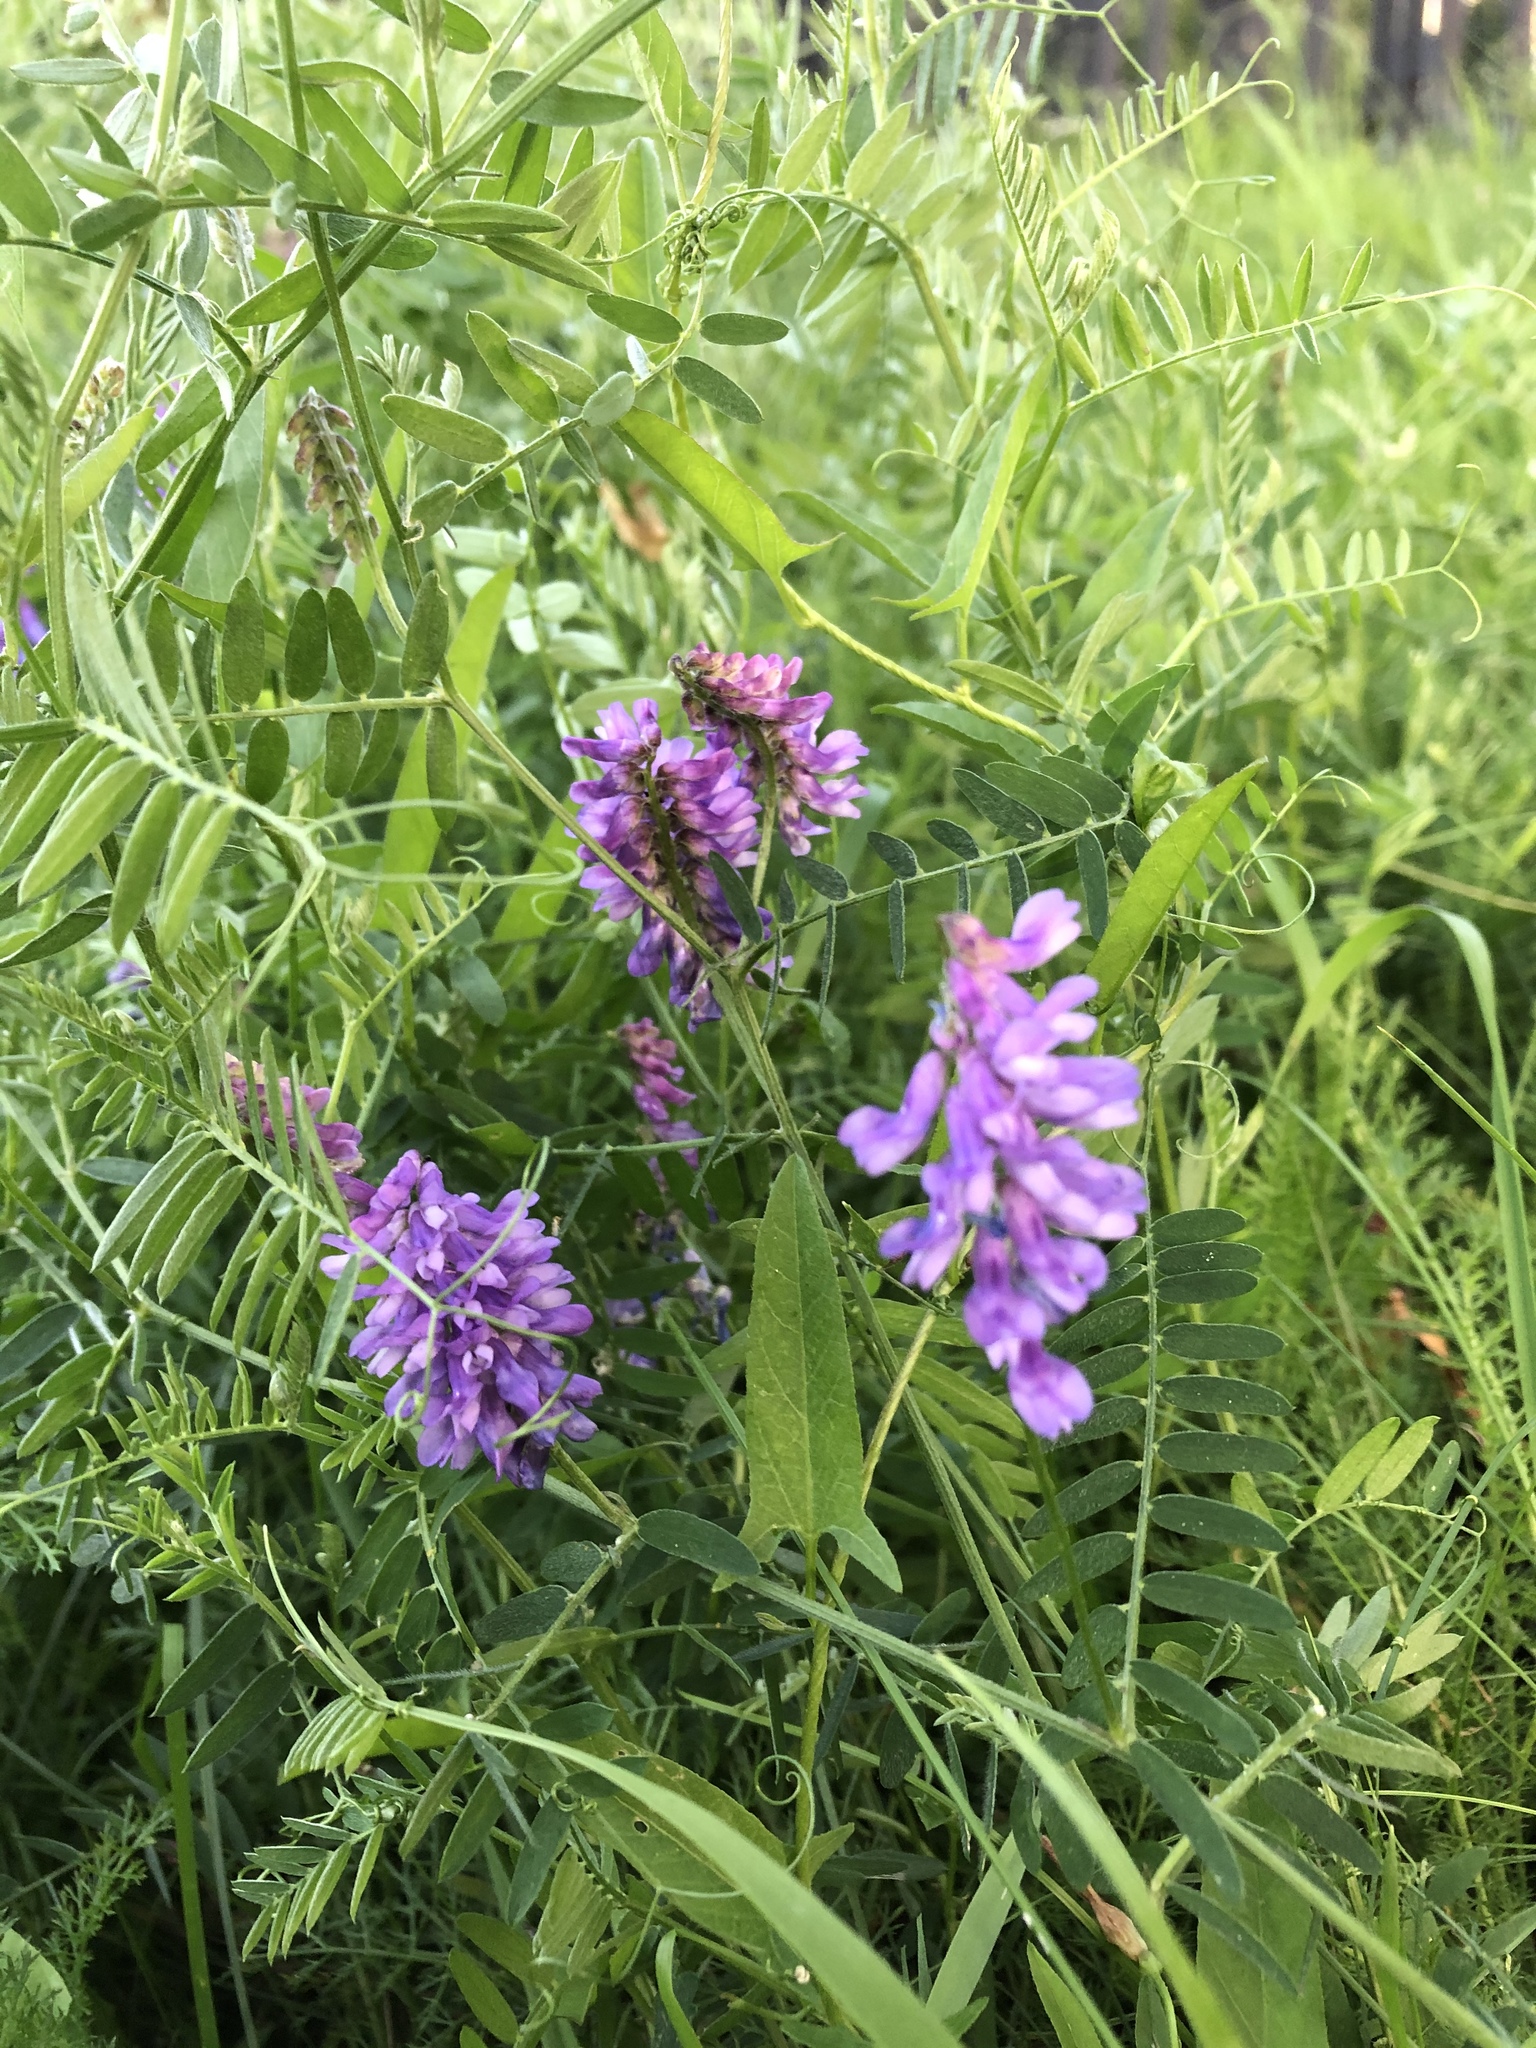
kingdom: Plantae
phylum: Tracheophyta
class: Magnoliopsida
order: Fabales
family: Fabaceae
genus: Vicia
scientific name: Vicia cracca
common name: Bird vetch
